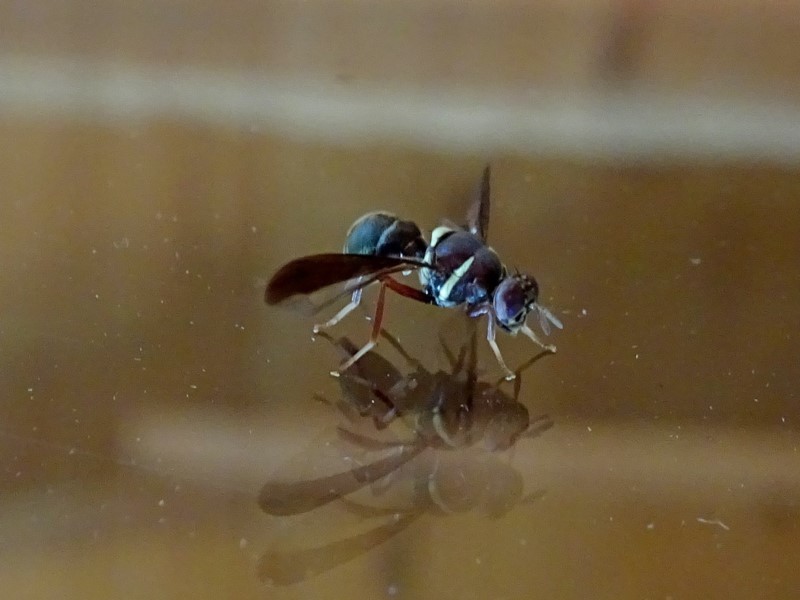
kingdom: Animalia
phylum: Arthropoda
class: Insecta
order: Diptera
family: Tephritidae
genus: Dacus
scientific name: Dacus absonifacies
